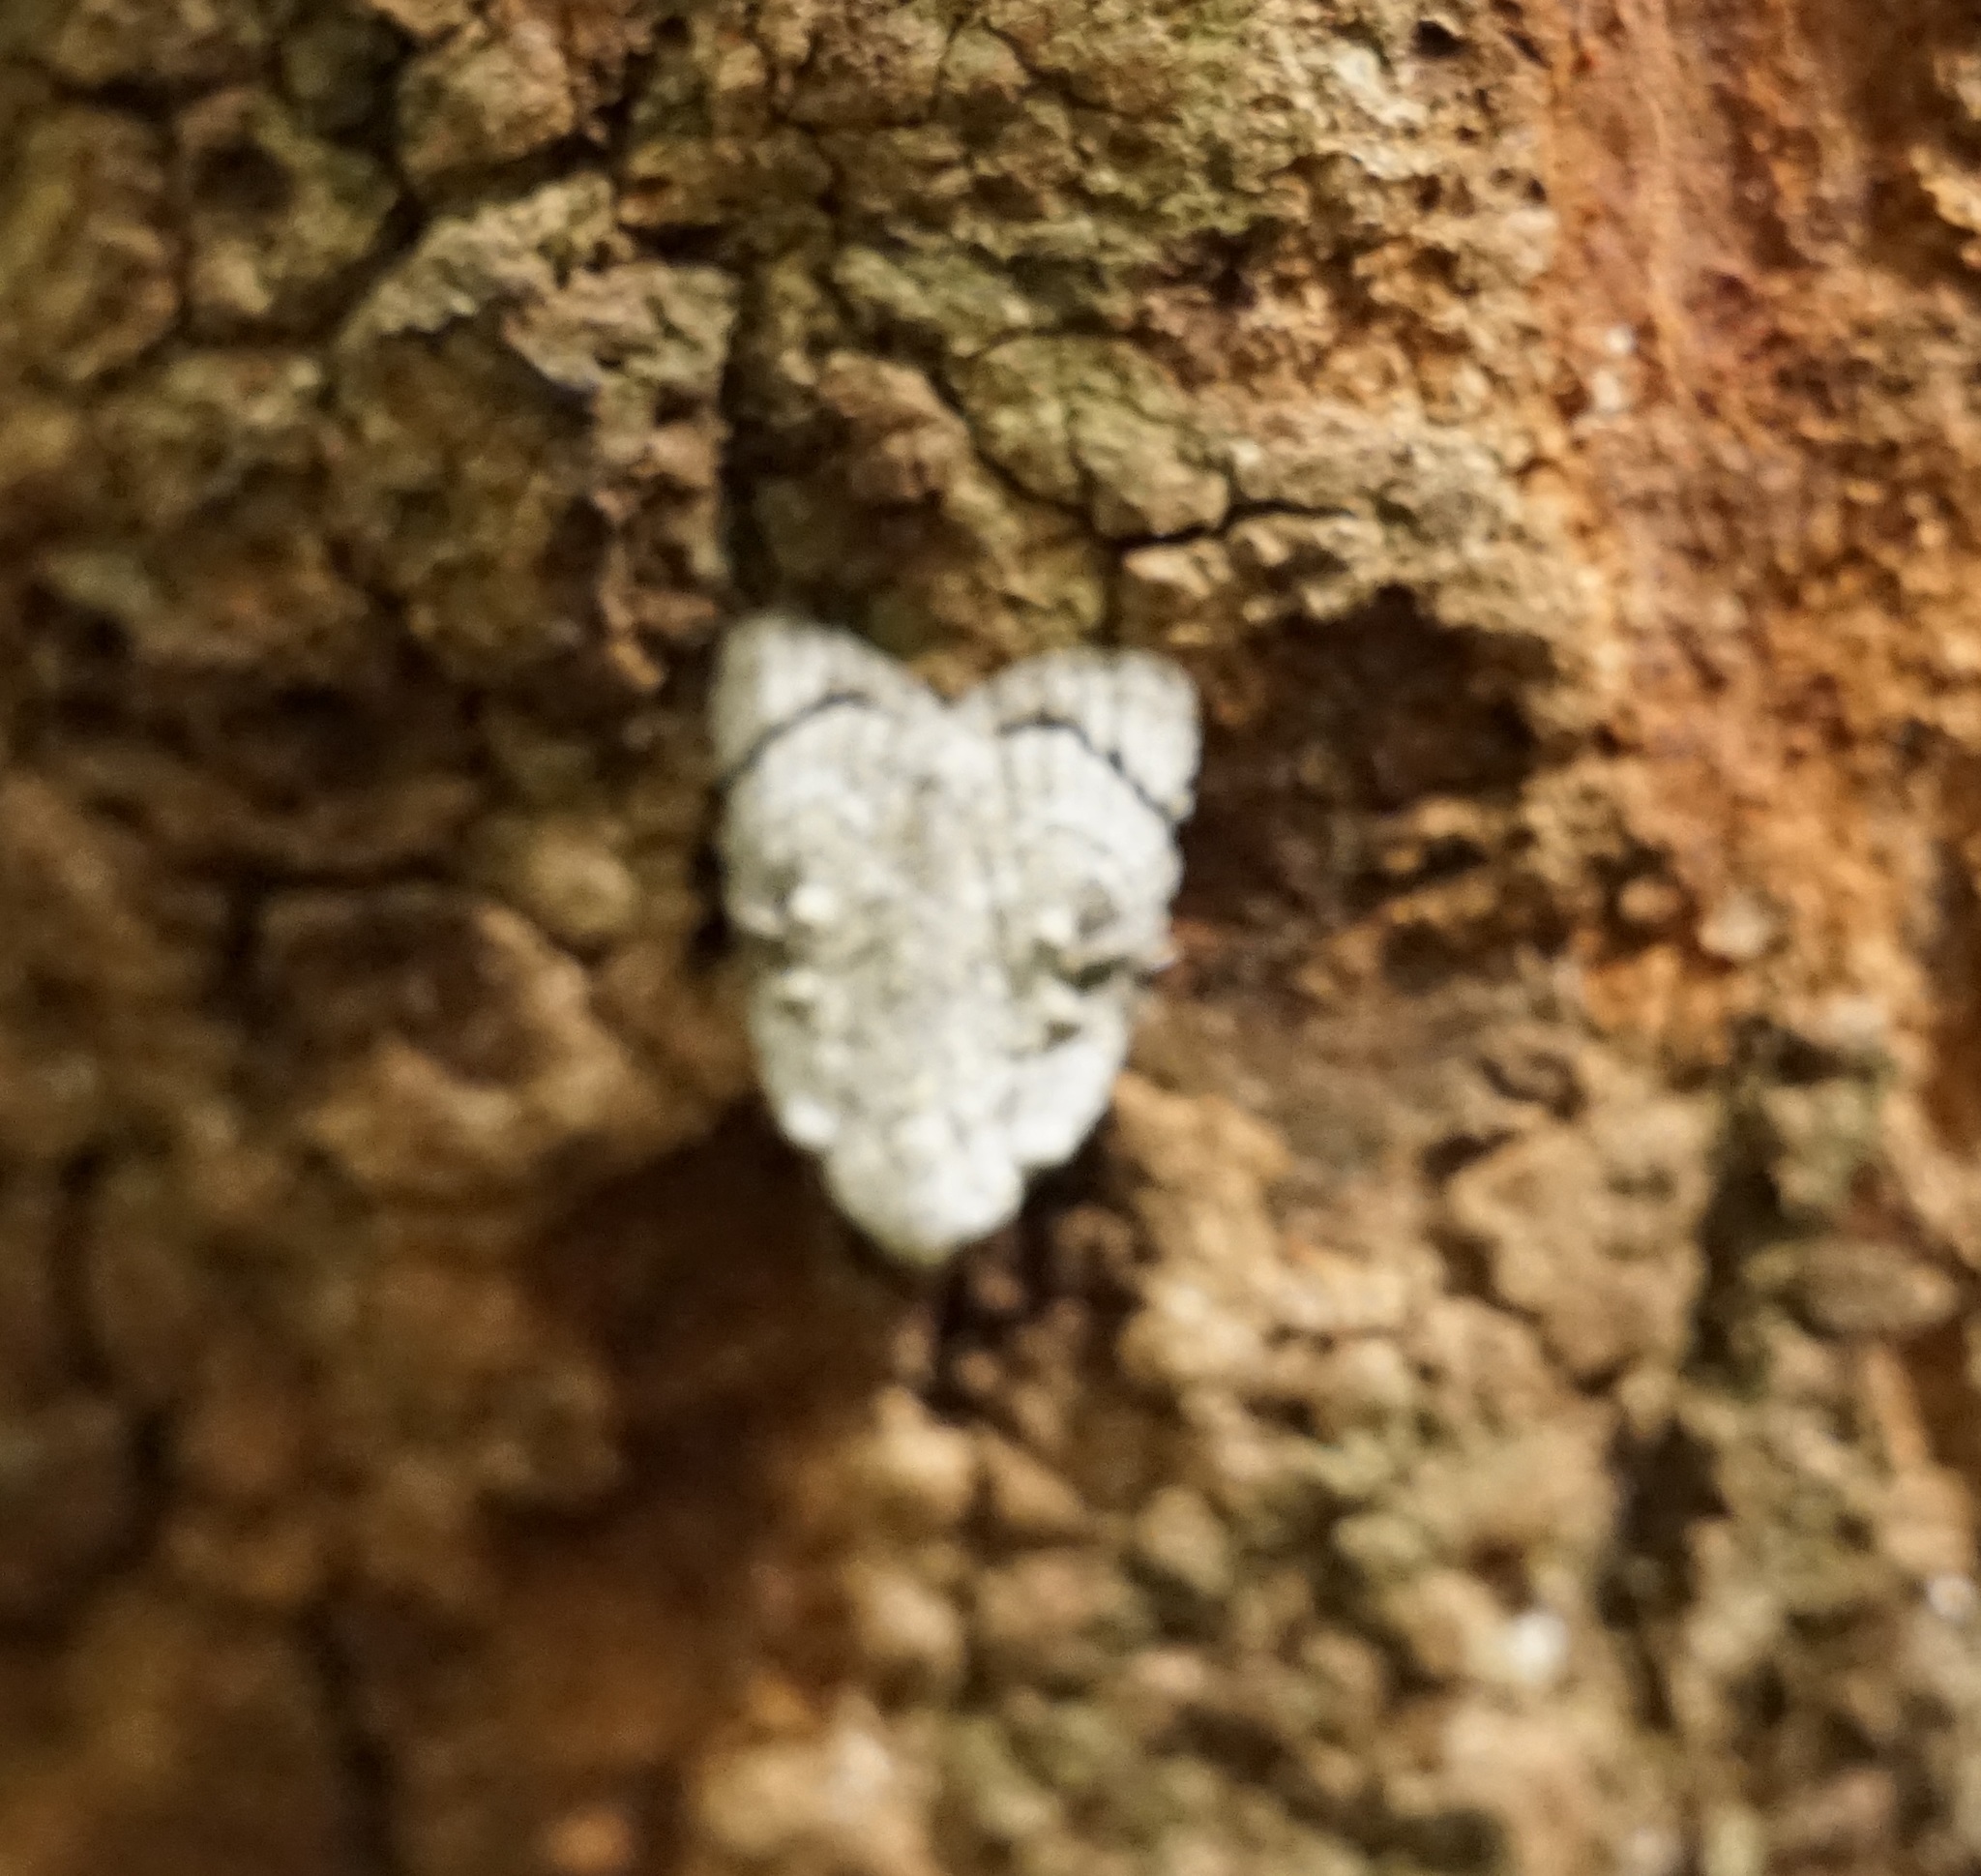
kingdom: Animalia
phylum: Arthropoda
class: Insecta
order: Lepidoptera
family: Nolidae
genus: Nola
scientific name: Nola zaplethes
